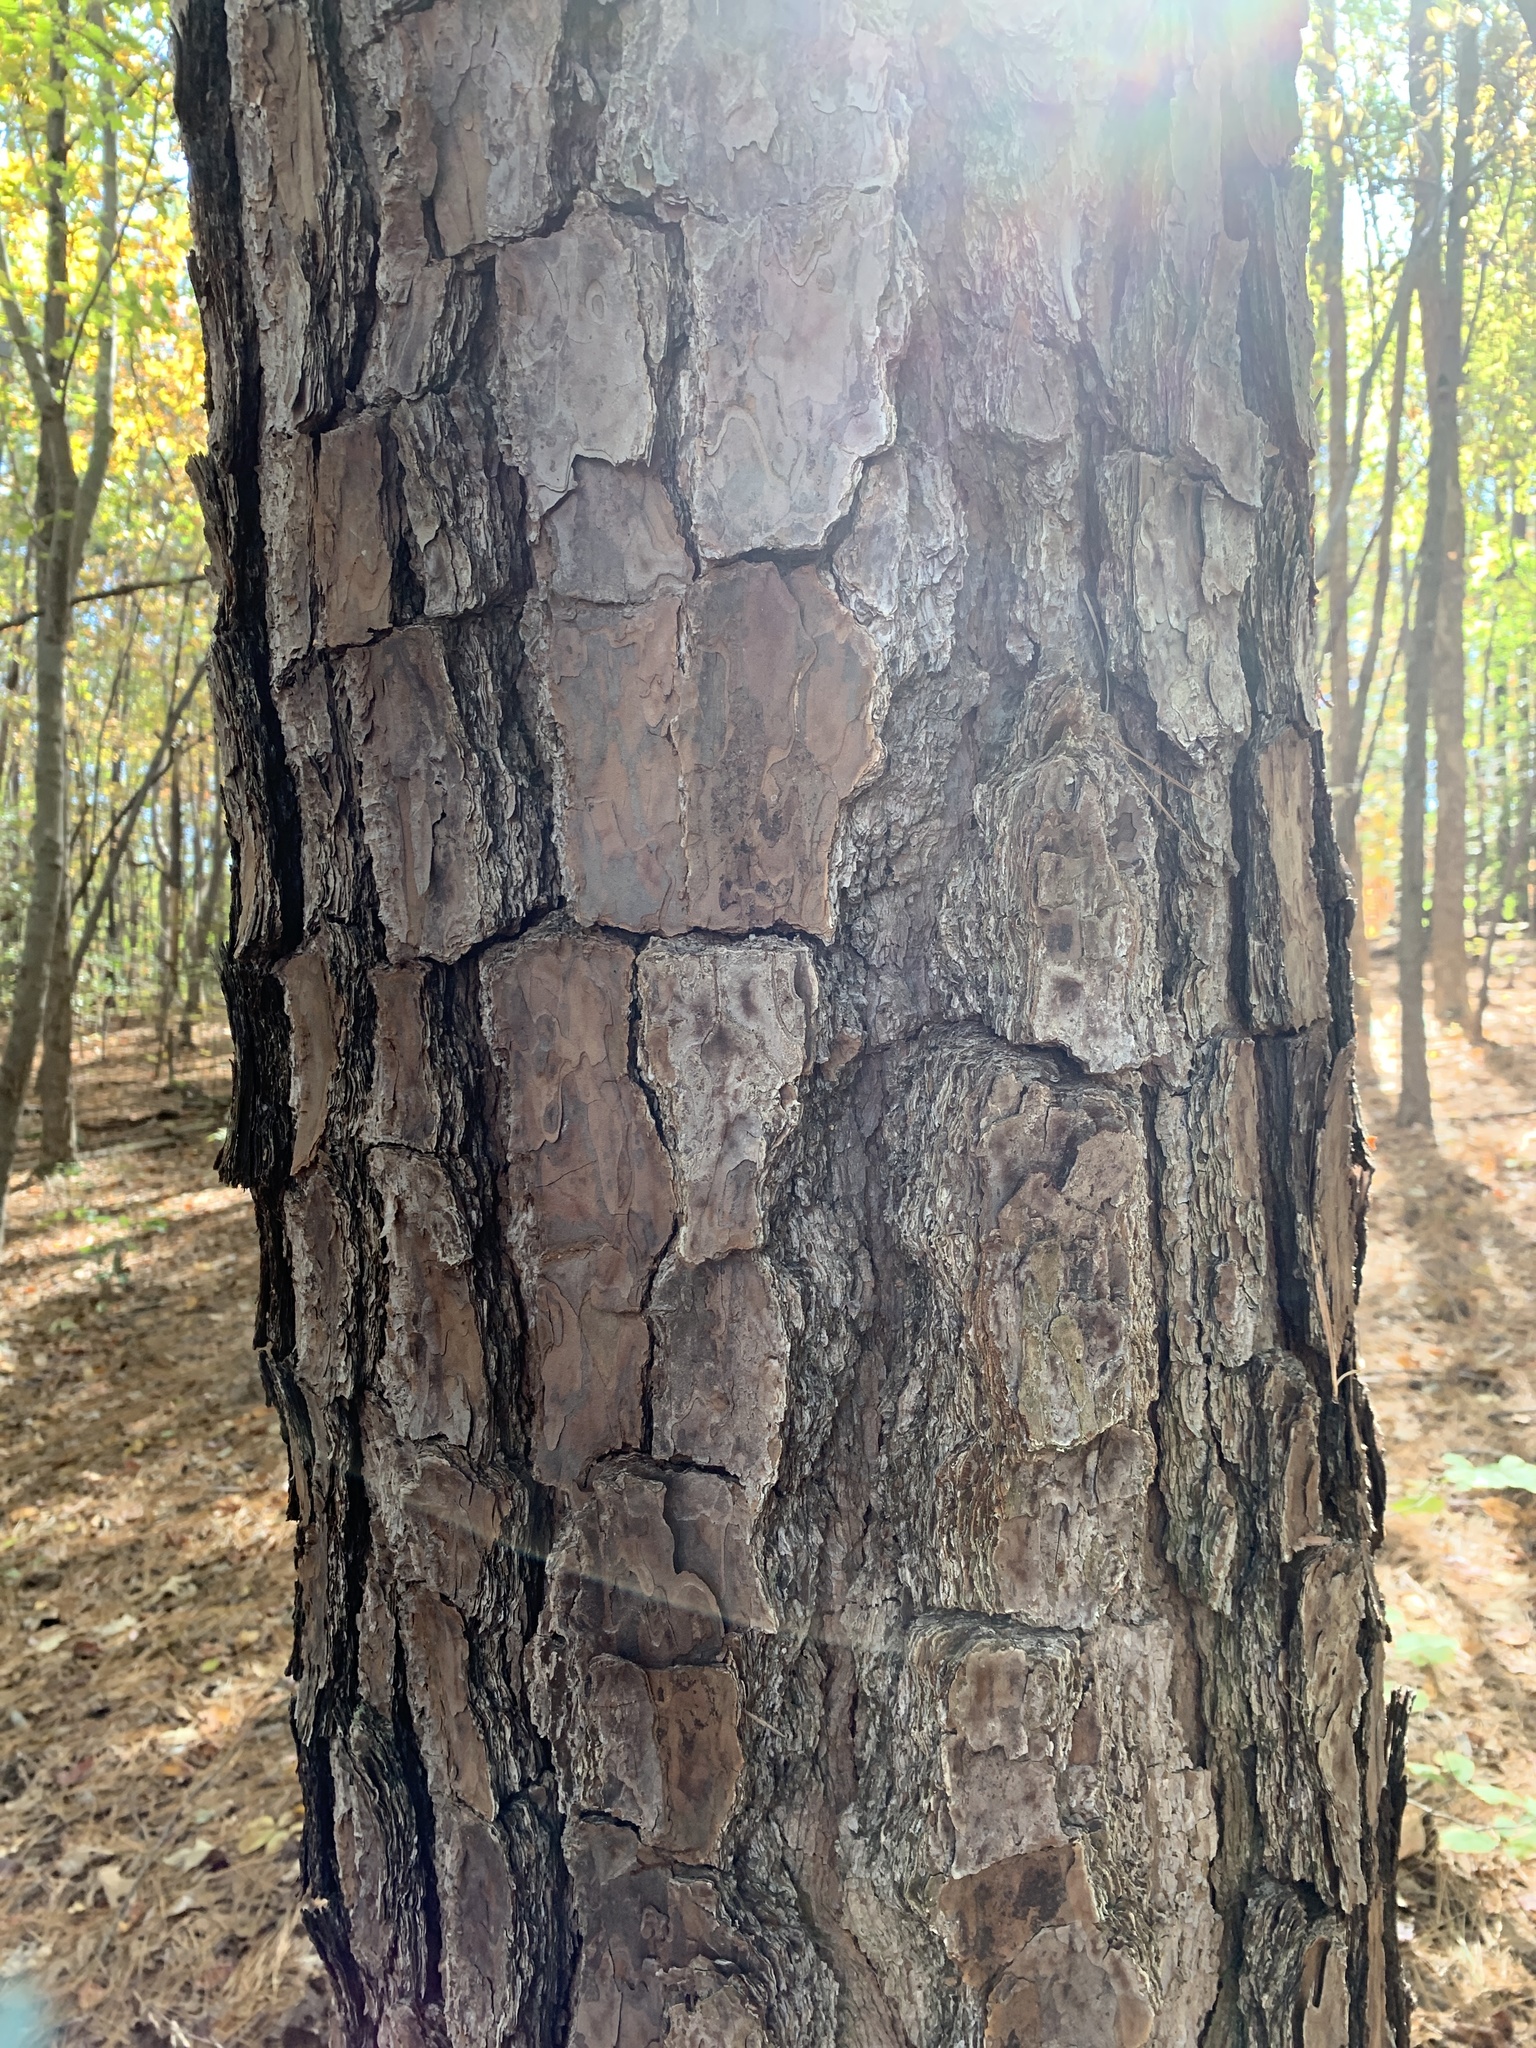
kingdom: Plantae
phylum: Tracheophyta
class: Pinopsida
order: Pinales
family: Pinaceae
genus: Pinus
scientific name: Pinus taeda
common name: Loblolly pine
